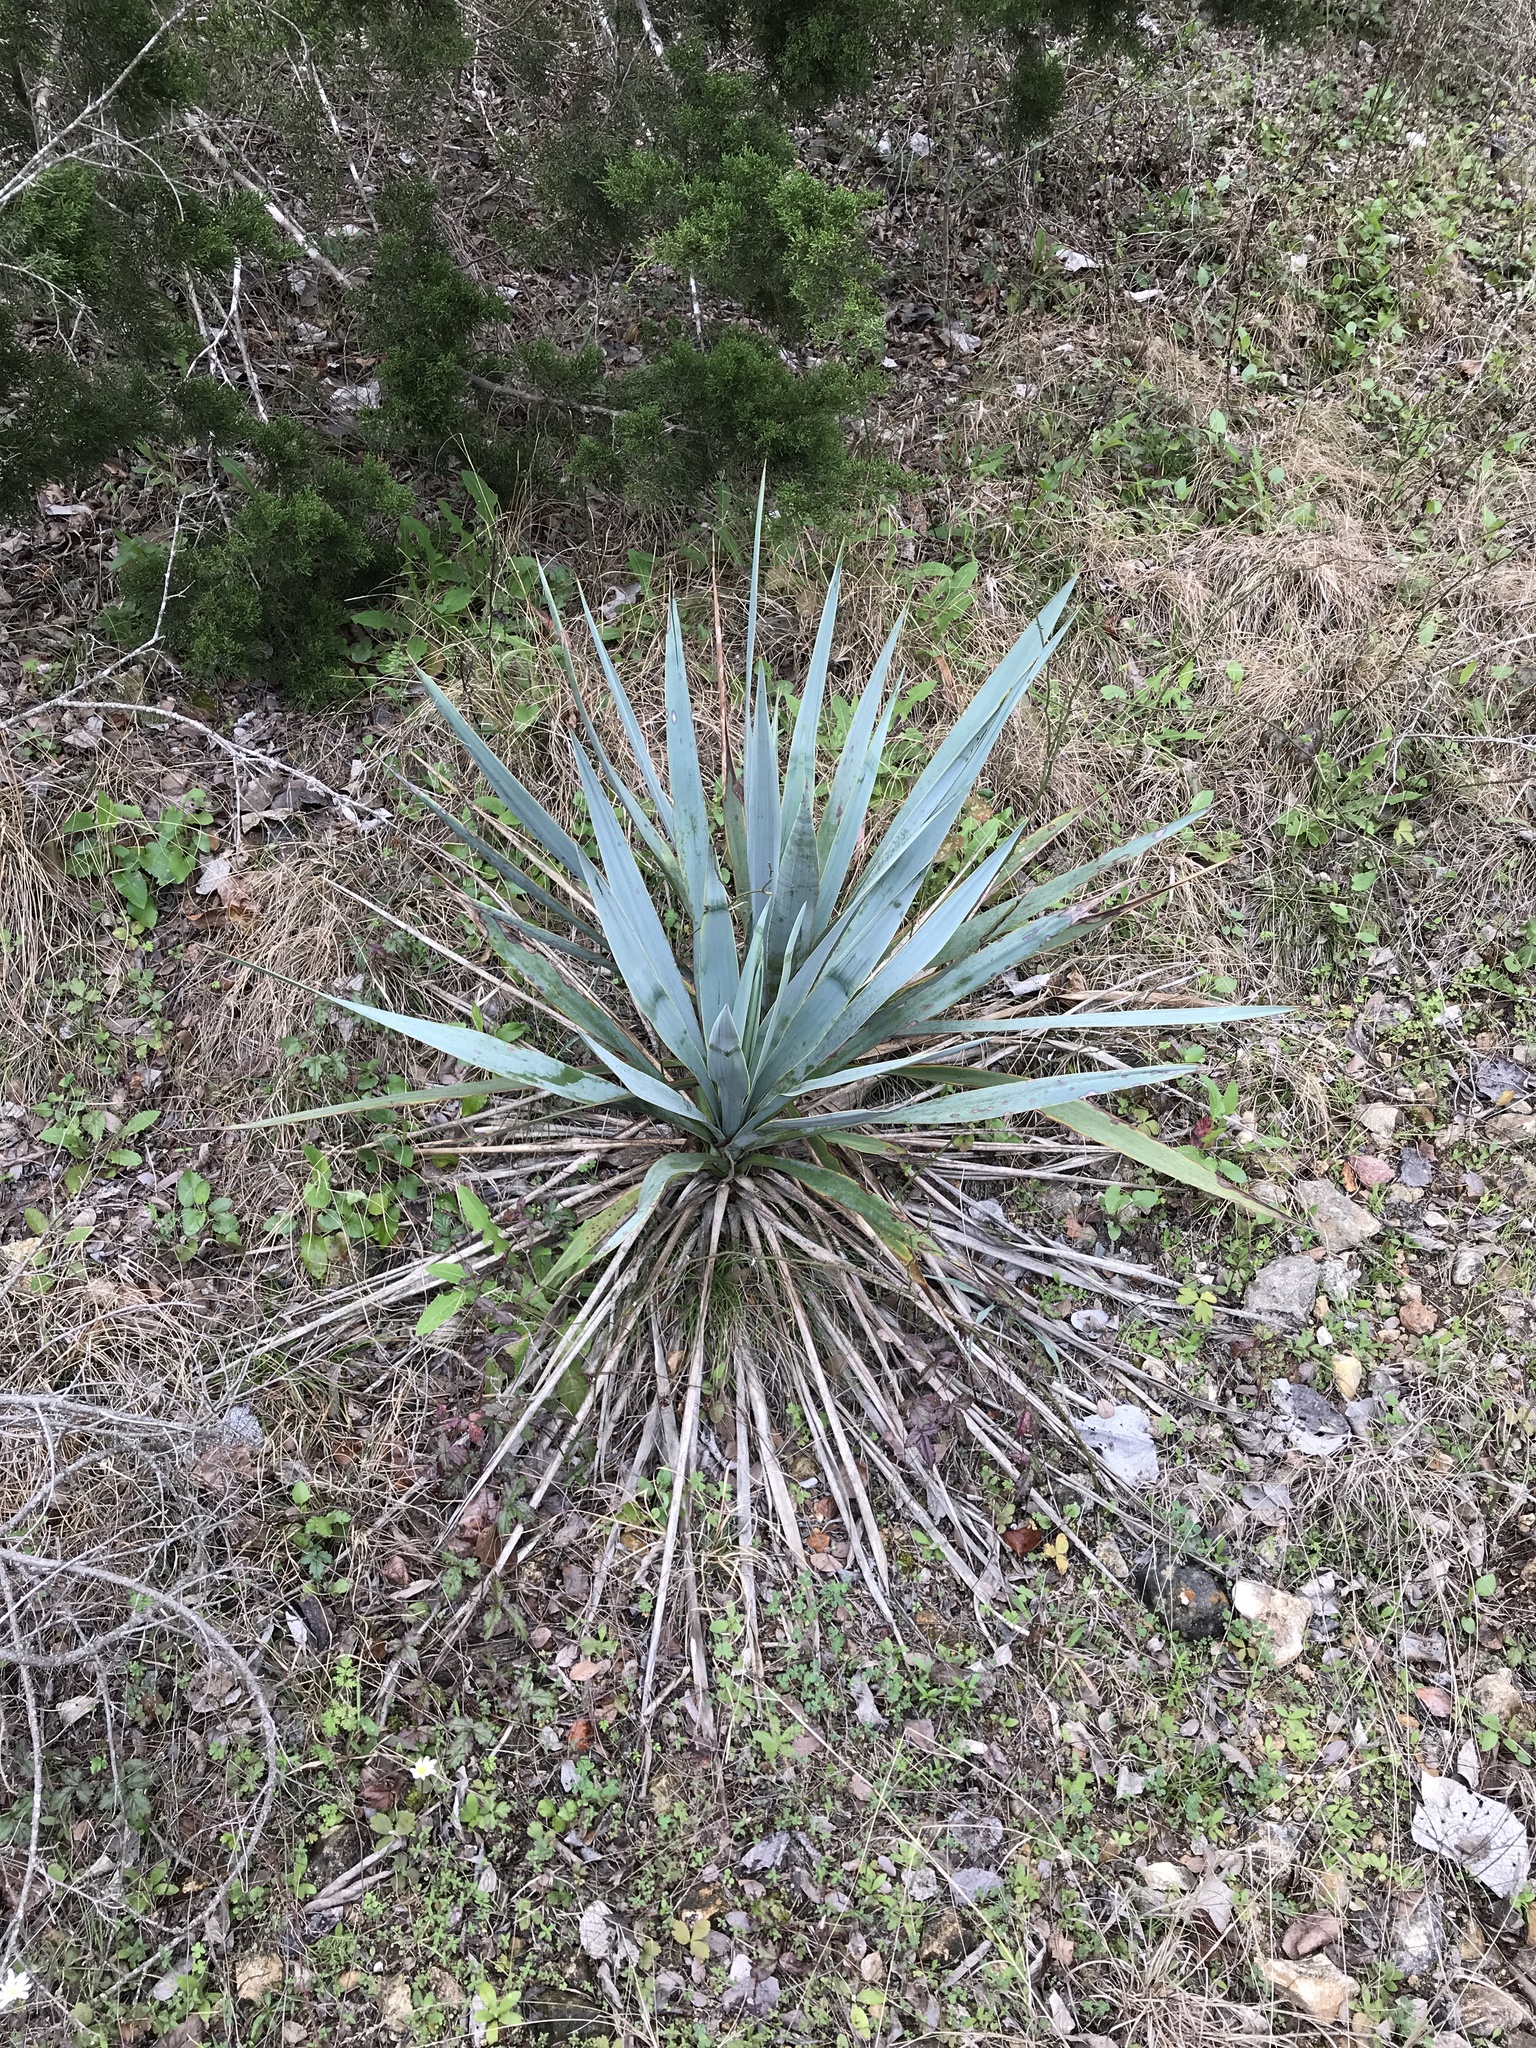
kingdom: Plantae
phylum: Tracheophyta
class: Liliopsida
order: Asparagales
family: Asparagaceae
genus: Yucca
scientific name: Yucca pallida
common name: Pale leaf yucca
